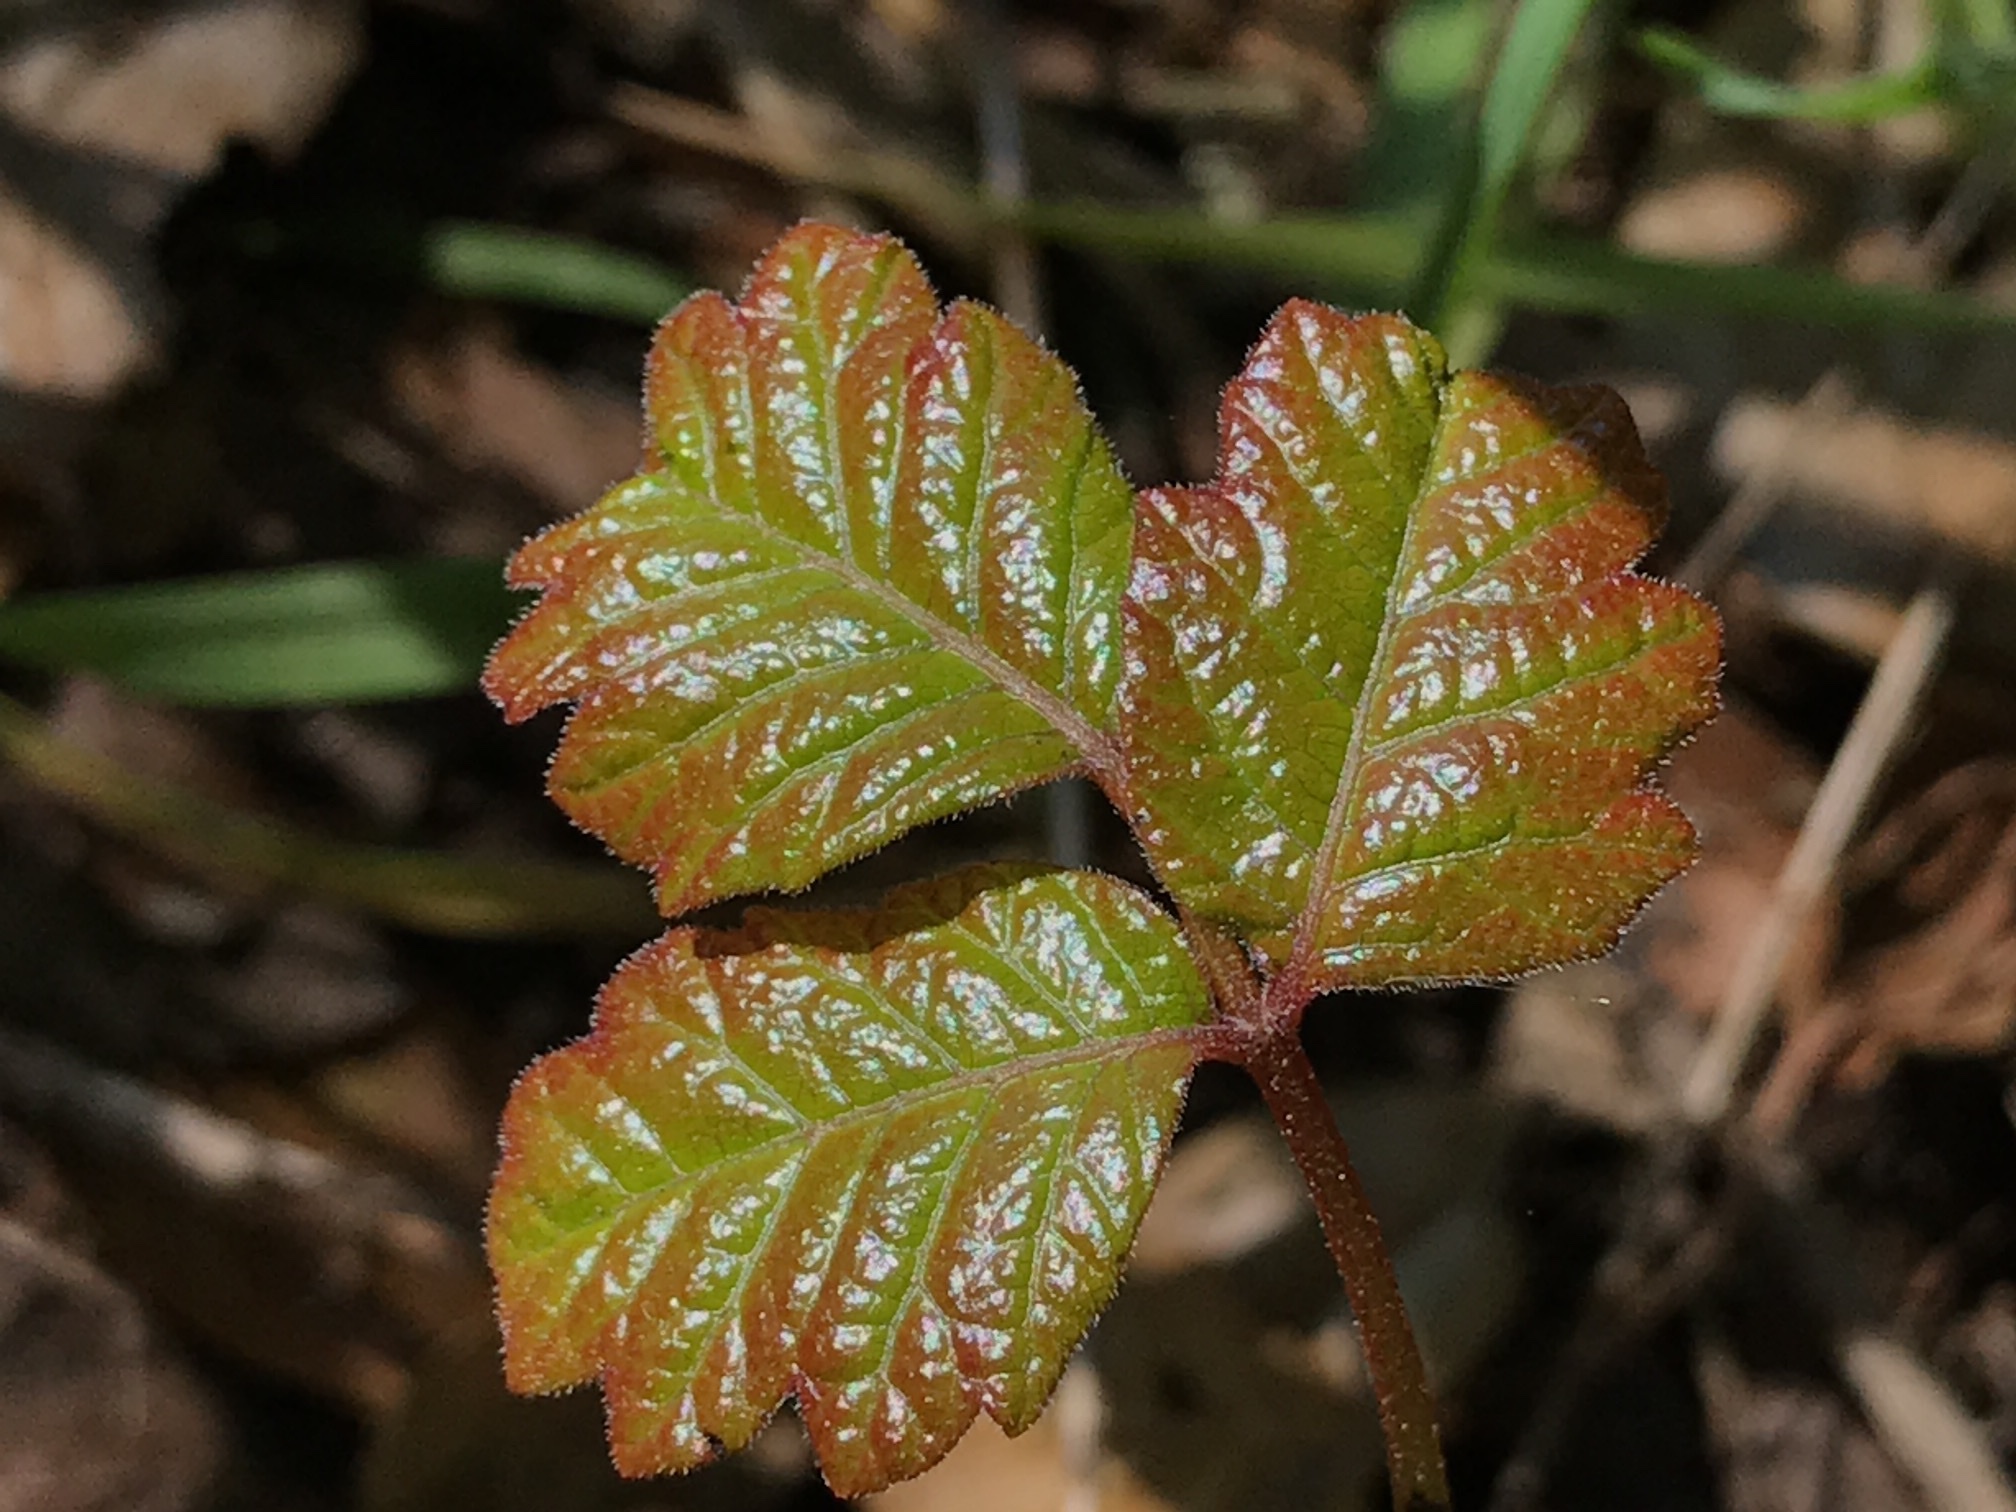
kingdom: Plantae
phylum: Tracheophyta
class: Magnoliopsida
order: Sapindales
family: Anacardiaceae
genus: Toxicodendron
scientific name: Toxicodendron diversilobum
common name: Pacific poison-oak
